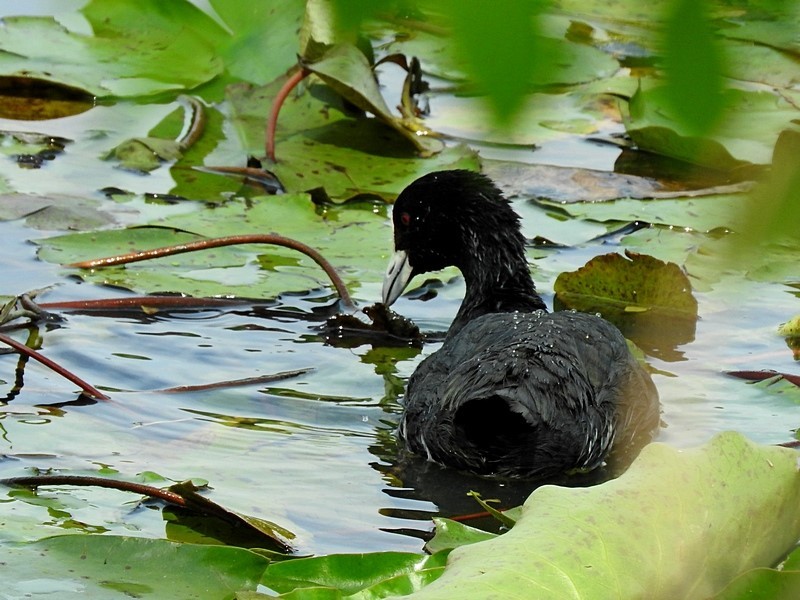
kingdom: Animalia
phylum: Chordata
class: Aves
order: Gruiformes
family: Rallidae
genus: Fulica
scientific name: Fulica atra
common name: Eurasian coot
